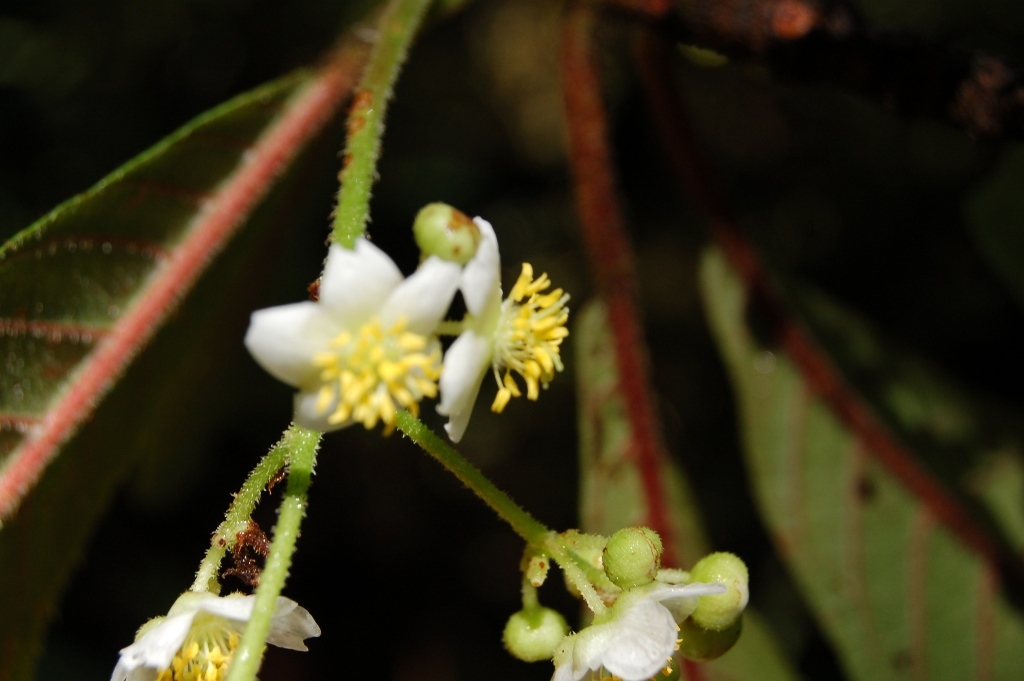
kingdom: Plantae
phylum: Tracheophyta
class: Magnoliopsida
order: Ericales
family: Actinidiaceae
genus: Saurauia
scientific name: Saurauia oreophila
